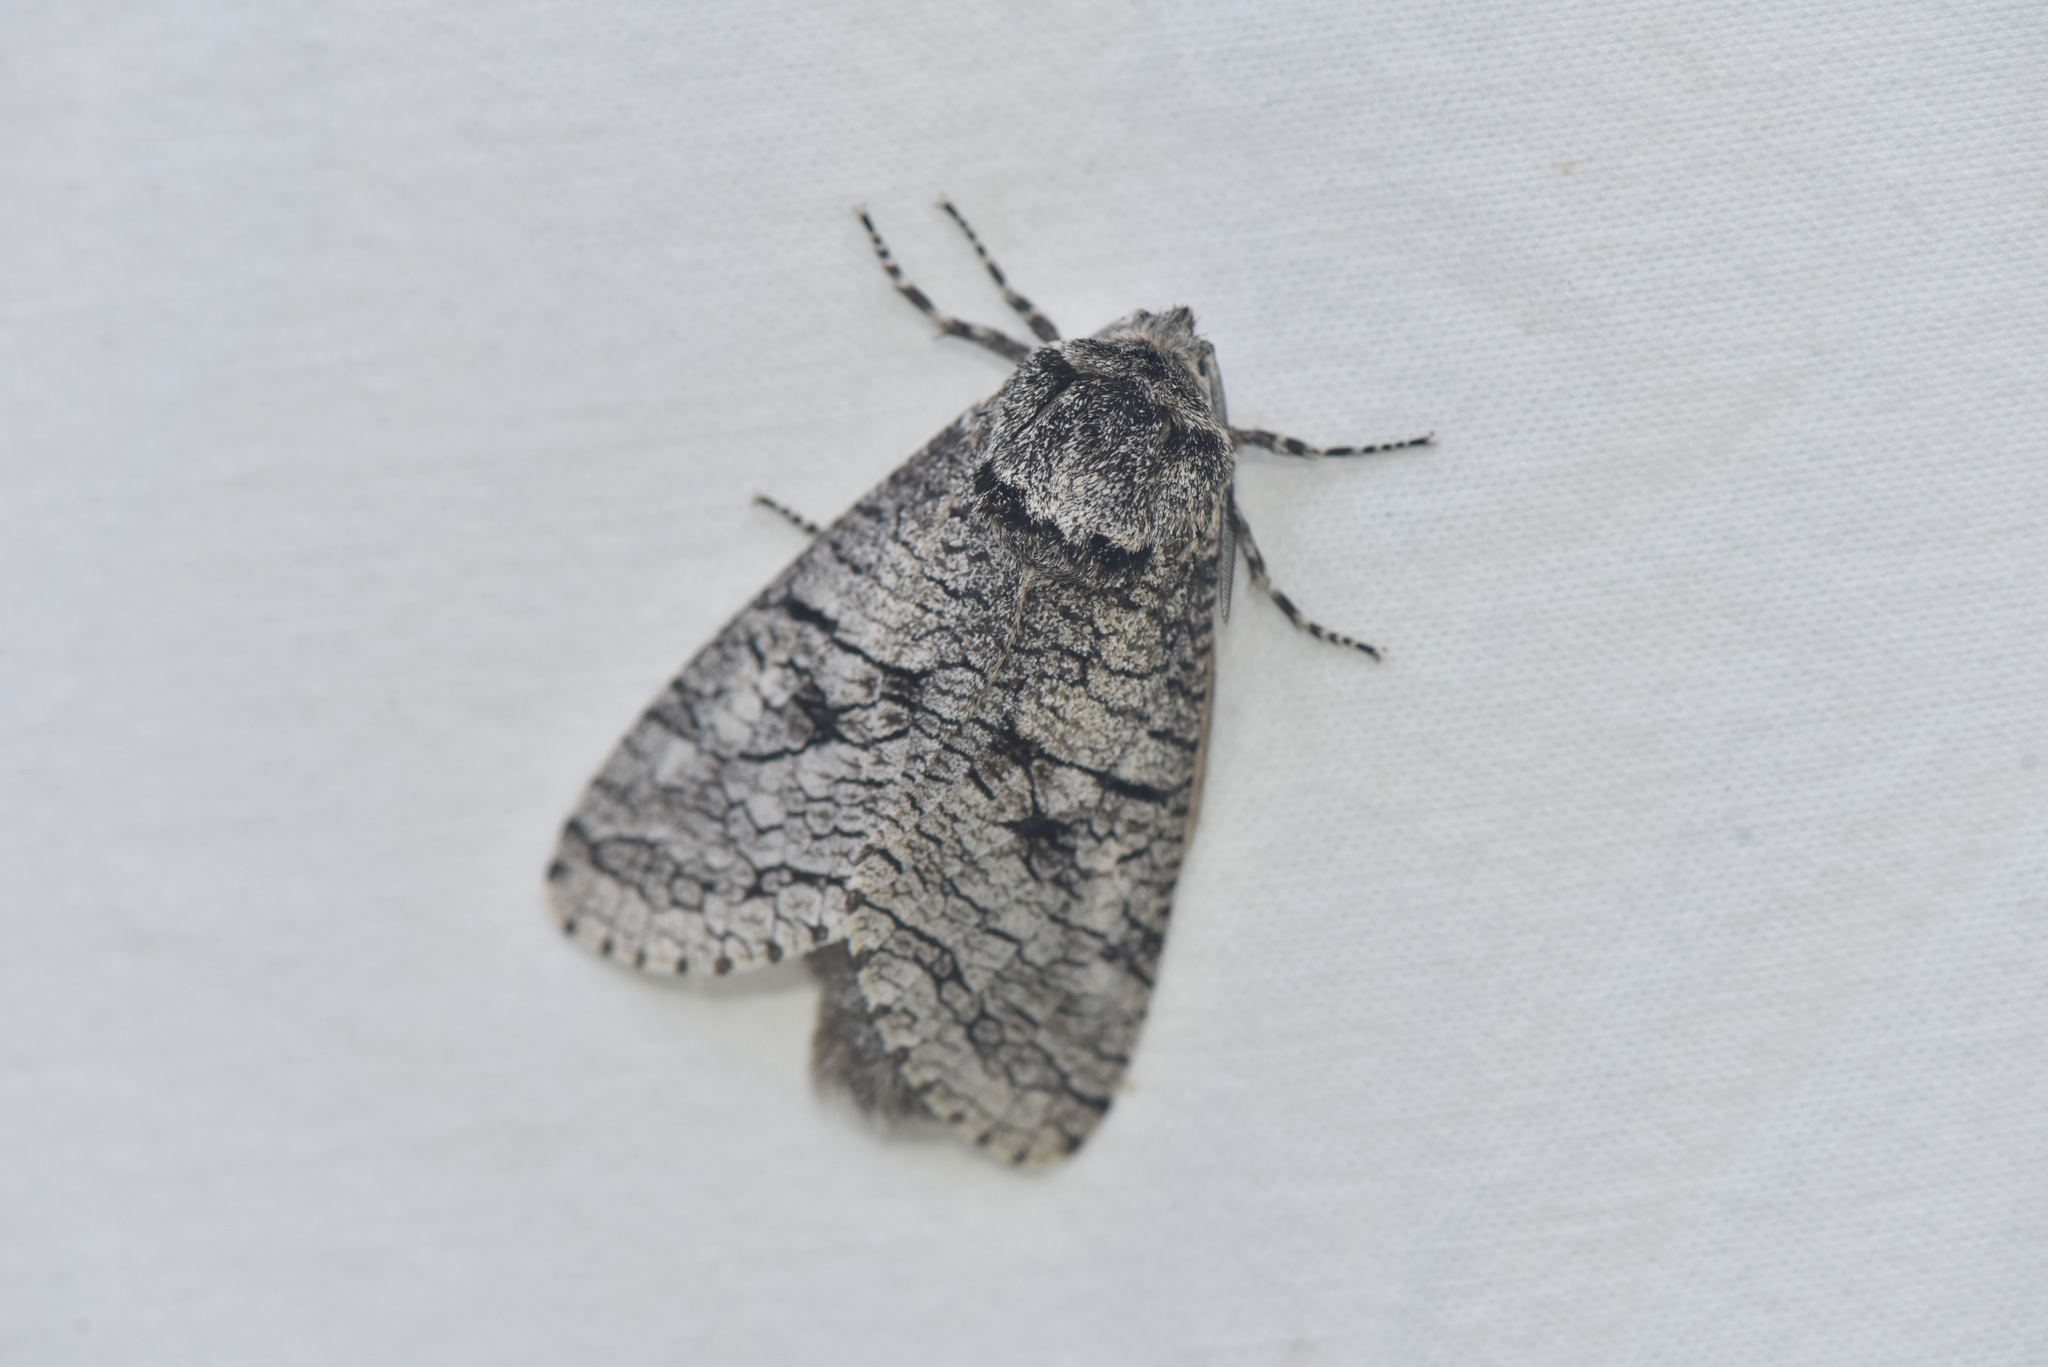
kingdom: Animalia
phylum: Arthropoda
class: Insecta
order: Lepidoptera
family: Cossidae
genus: Acossus
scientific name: Acossus populi
